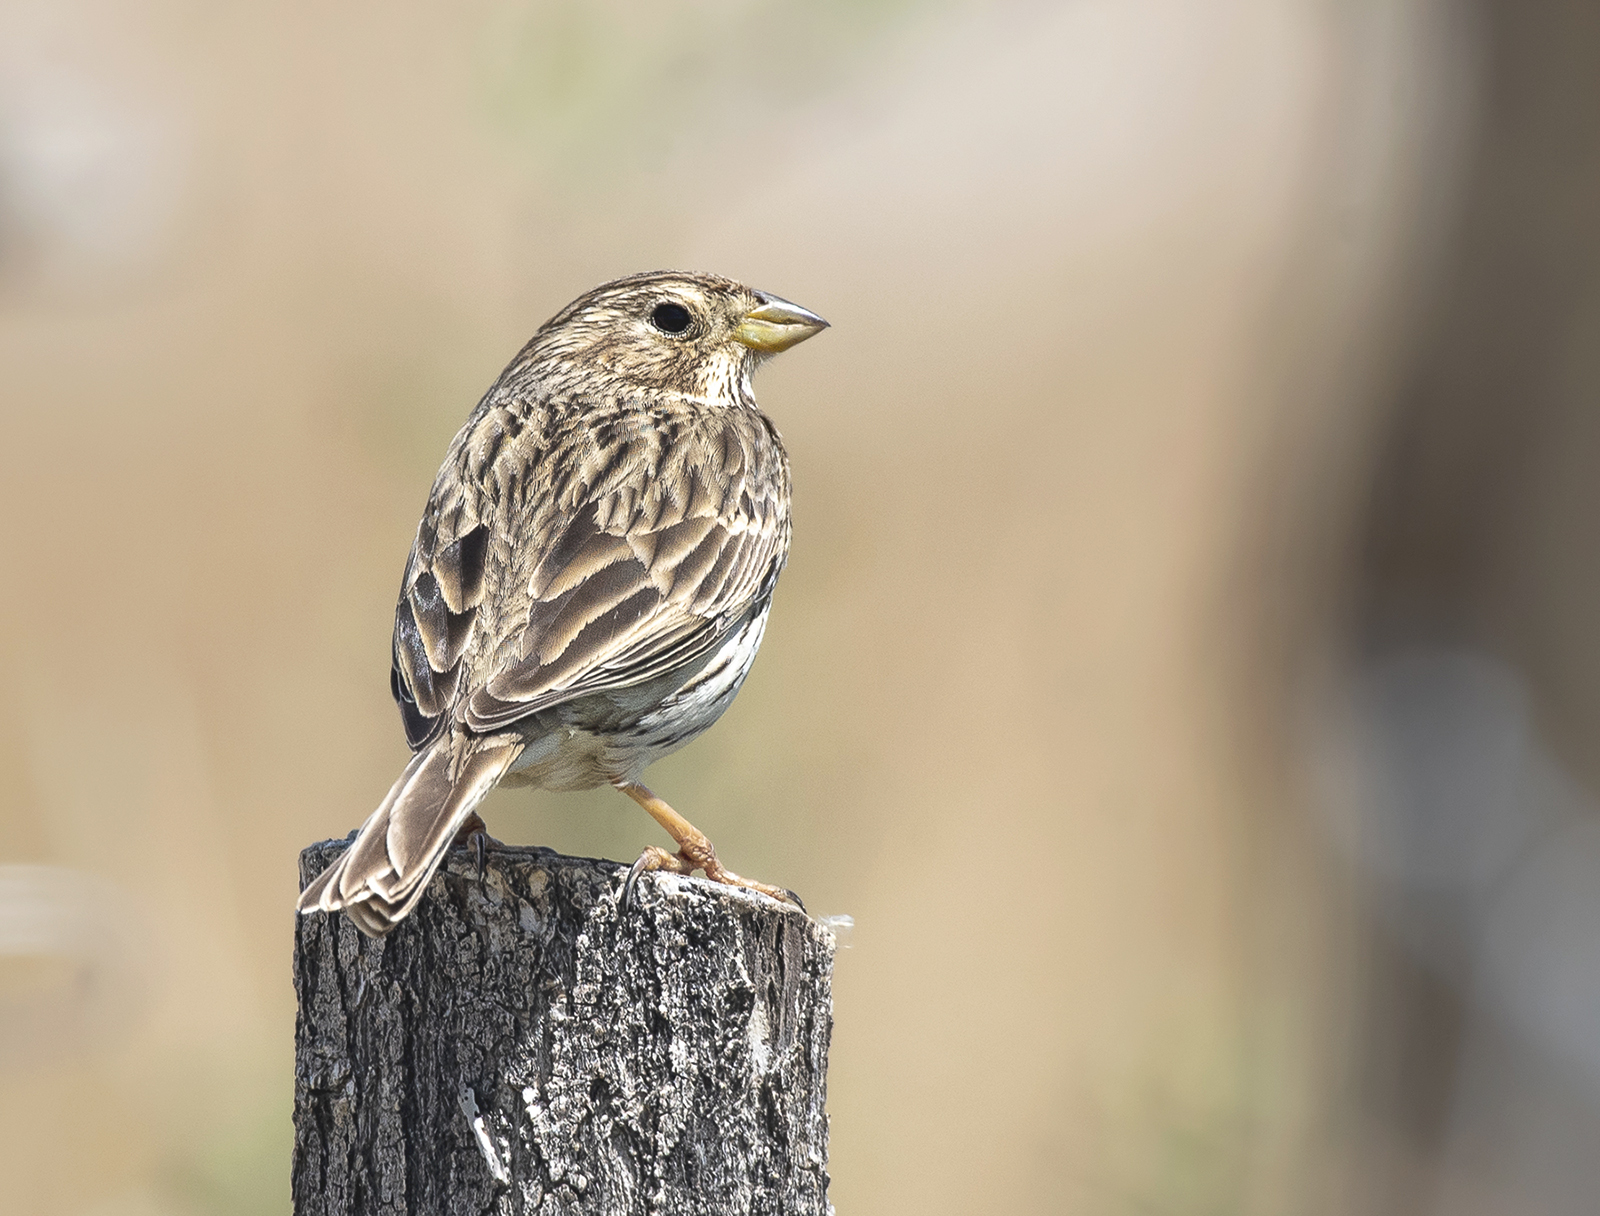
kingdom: Animalia
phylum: Chordata
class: Aves
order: Passeriformes
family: Emberizidae
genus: Emberiza
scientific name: Emberiza calandra
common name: Corn bunting
